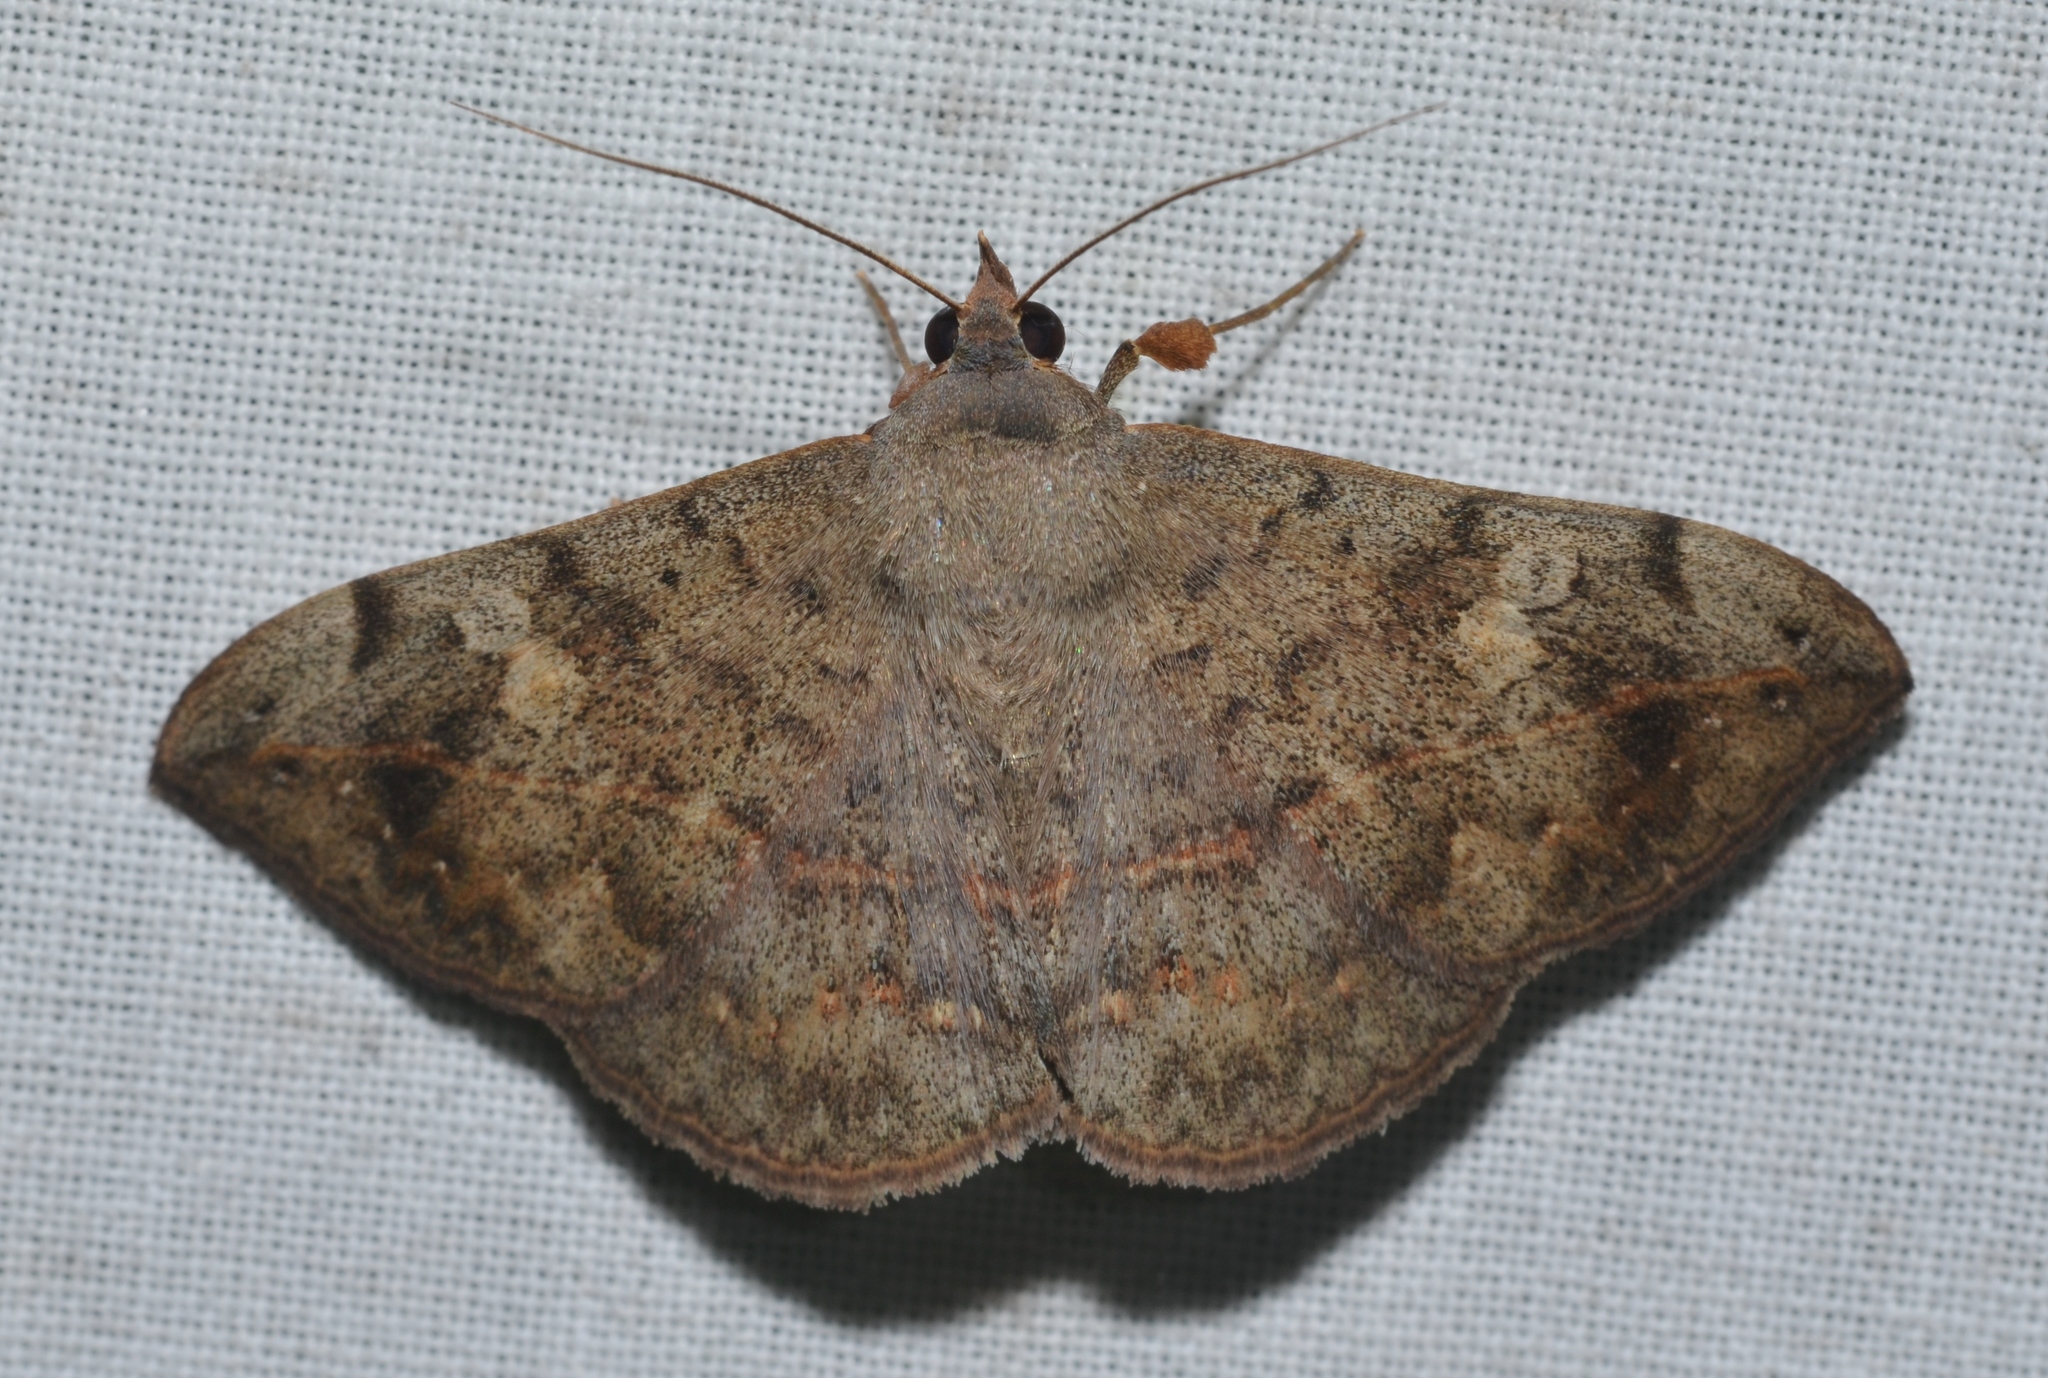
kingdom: Animalia
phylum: Arthropoda
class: Insecta
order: Lepidoptera
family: Erebidae
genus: Anticarsia
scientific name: Anticarsia gemmatalis
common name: Cutworm moth
